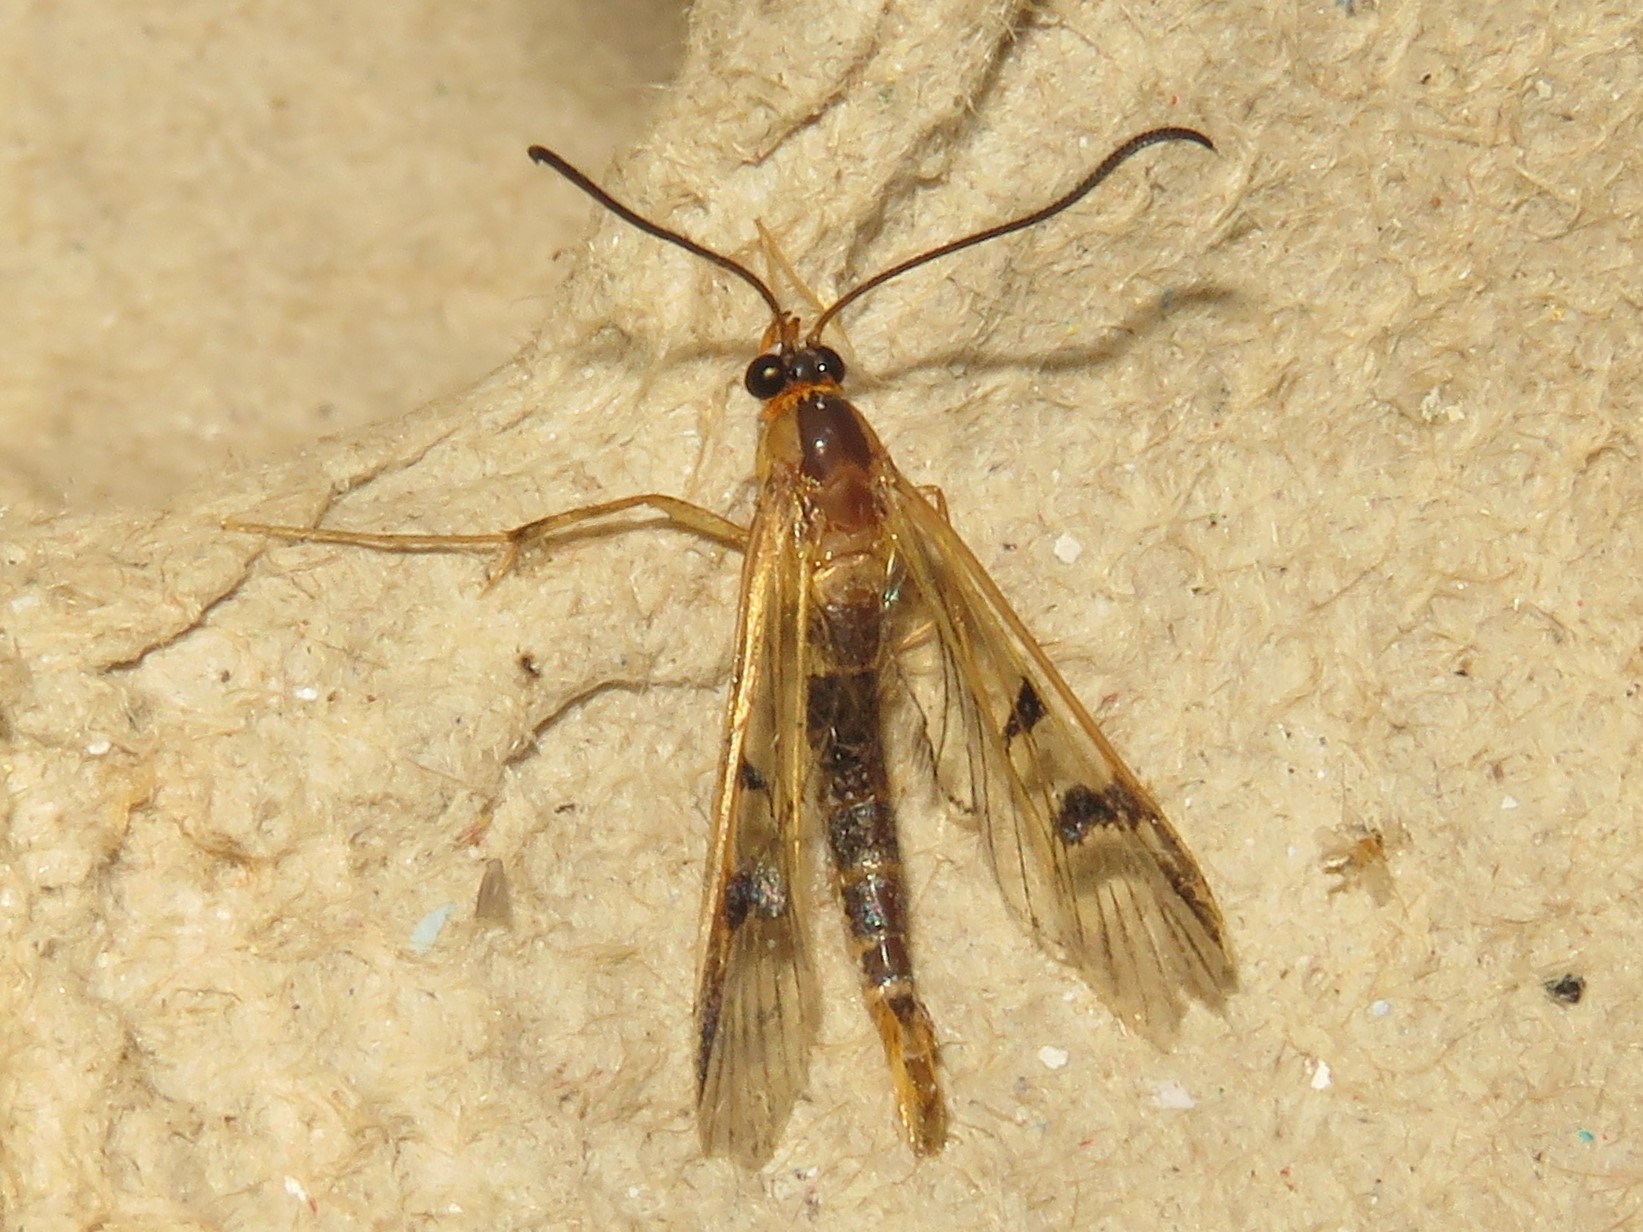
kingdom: Animalia
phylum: Arthropoda
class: Insecta
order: Lepidoptera
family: Sesiidae
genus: Synanthedon
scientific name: Synanthedon acerni
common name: Maple callus borer moth
